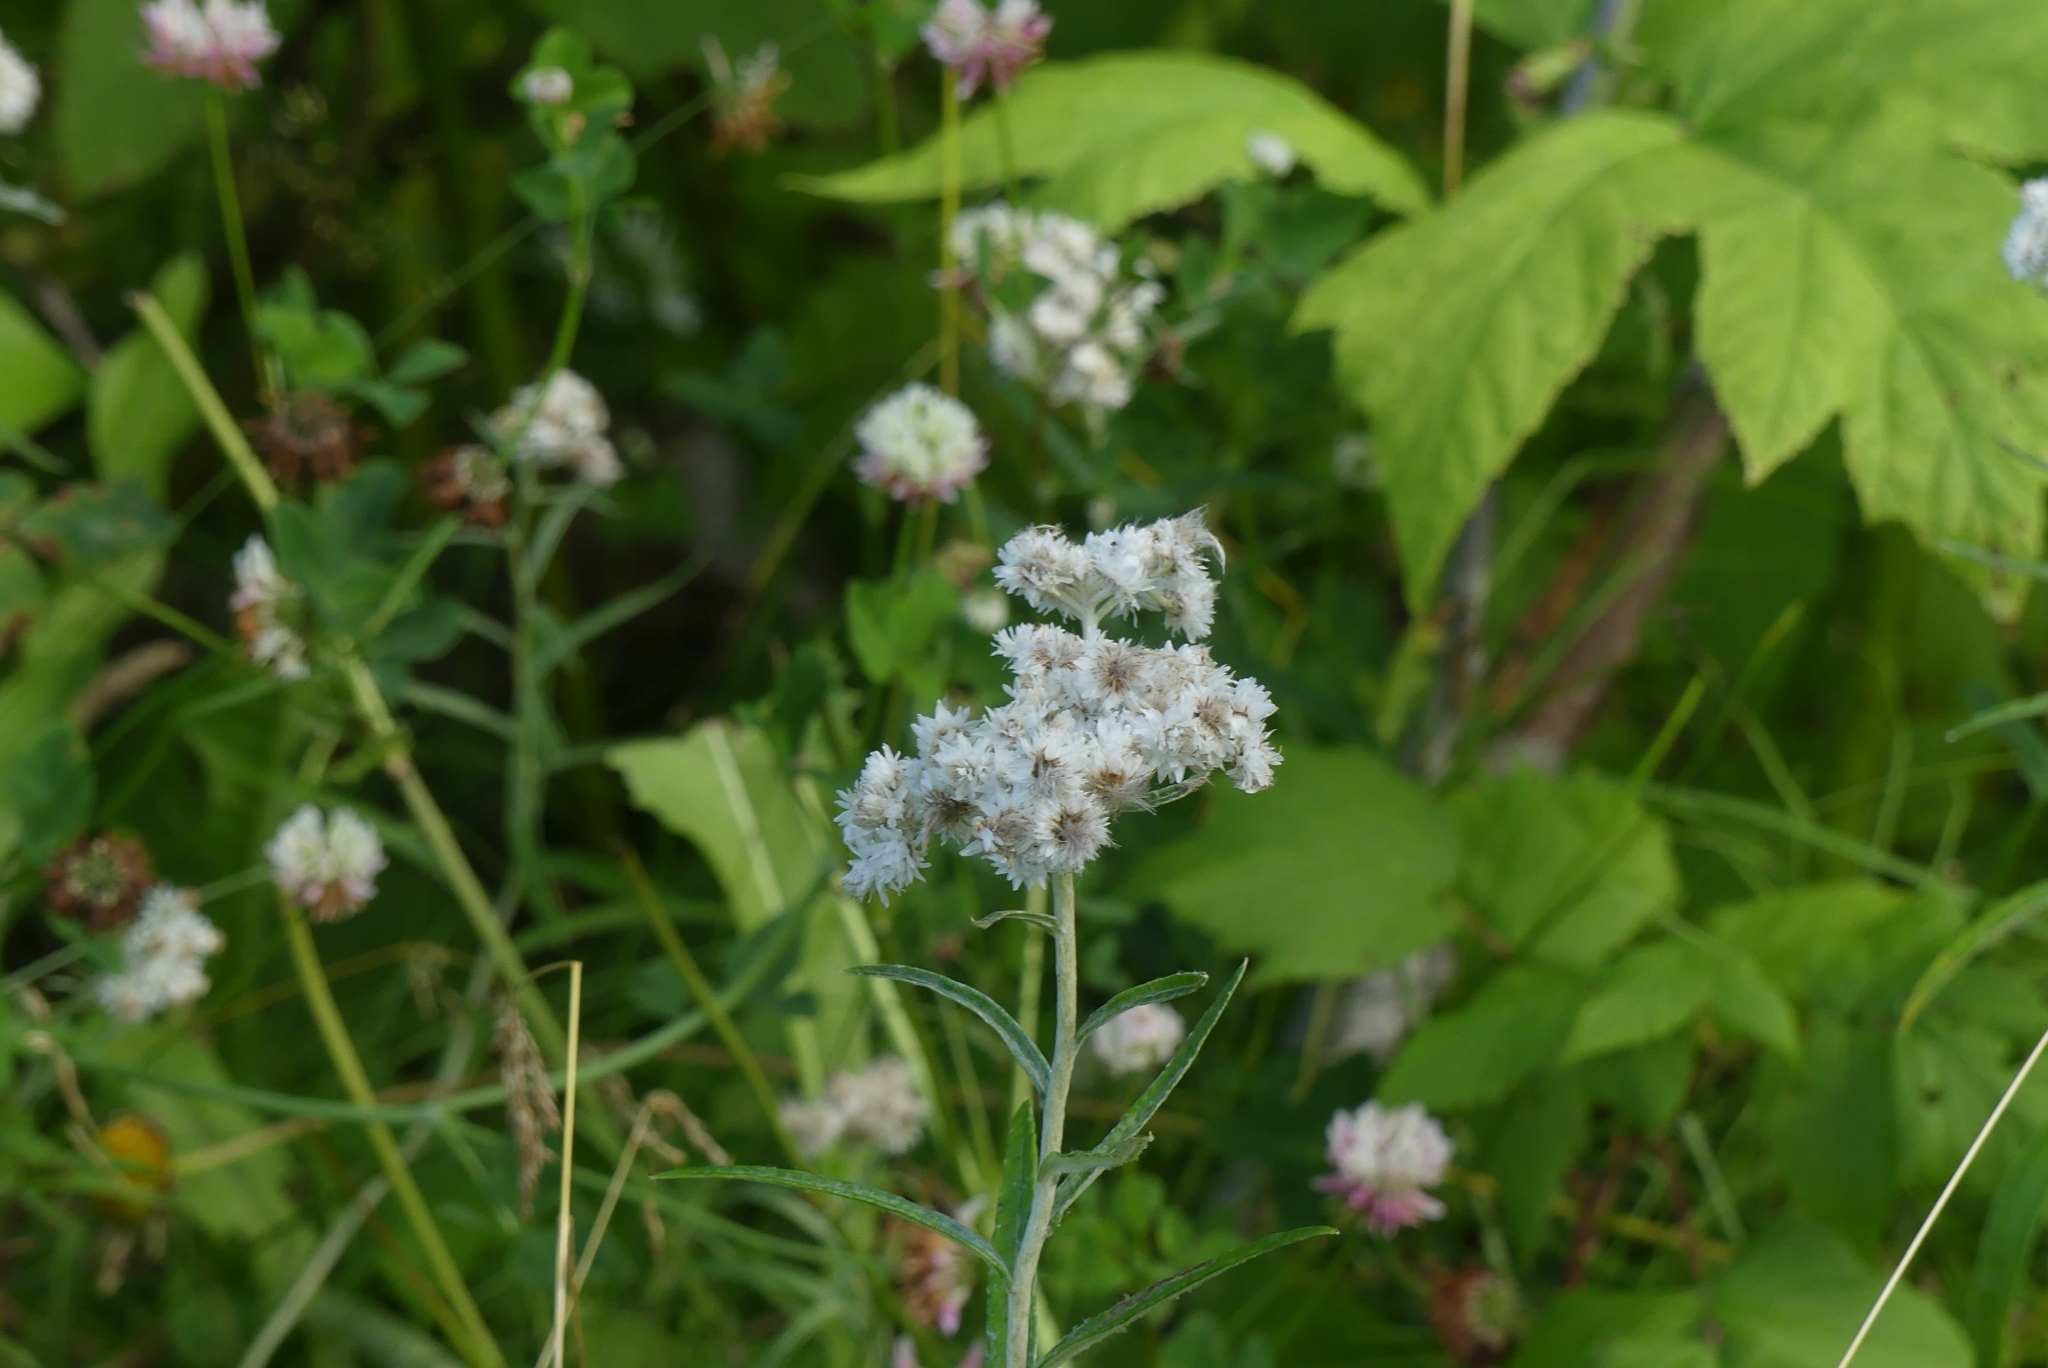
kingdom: Plantae
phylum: Tracheophyta
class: Magnoliopsida
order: Asterales
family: Asteraceae
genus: Anaphalis
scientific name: Anaphalis margaritacea
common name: Pearly everlasting
